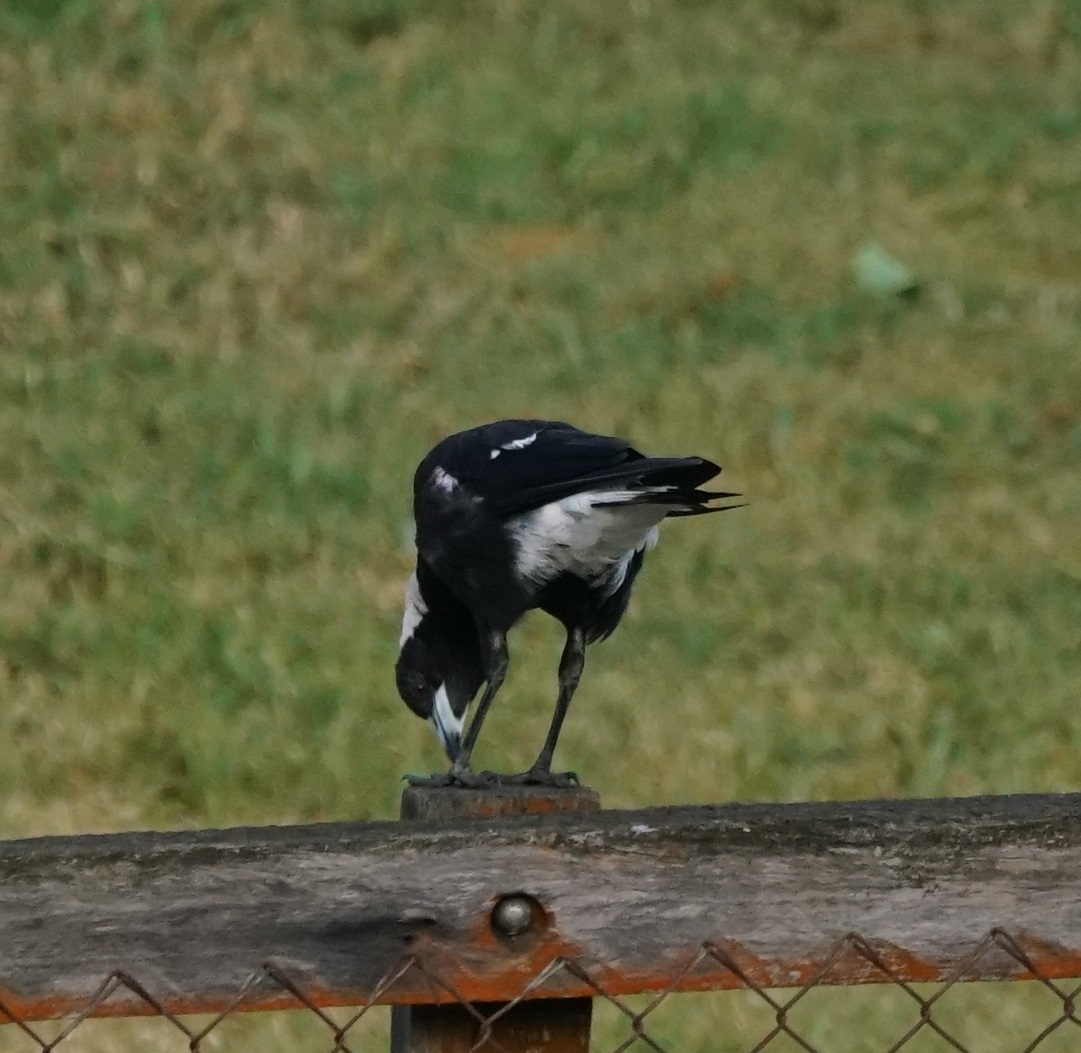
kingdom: Animalia
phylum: Chordata
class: Aves
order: Passeriformes
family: Cracticidae
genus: Gymnorhina
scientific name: Gymnorhina tibicen
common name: Australian magpie
